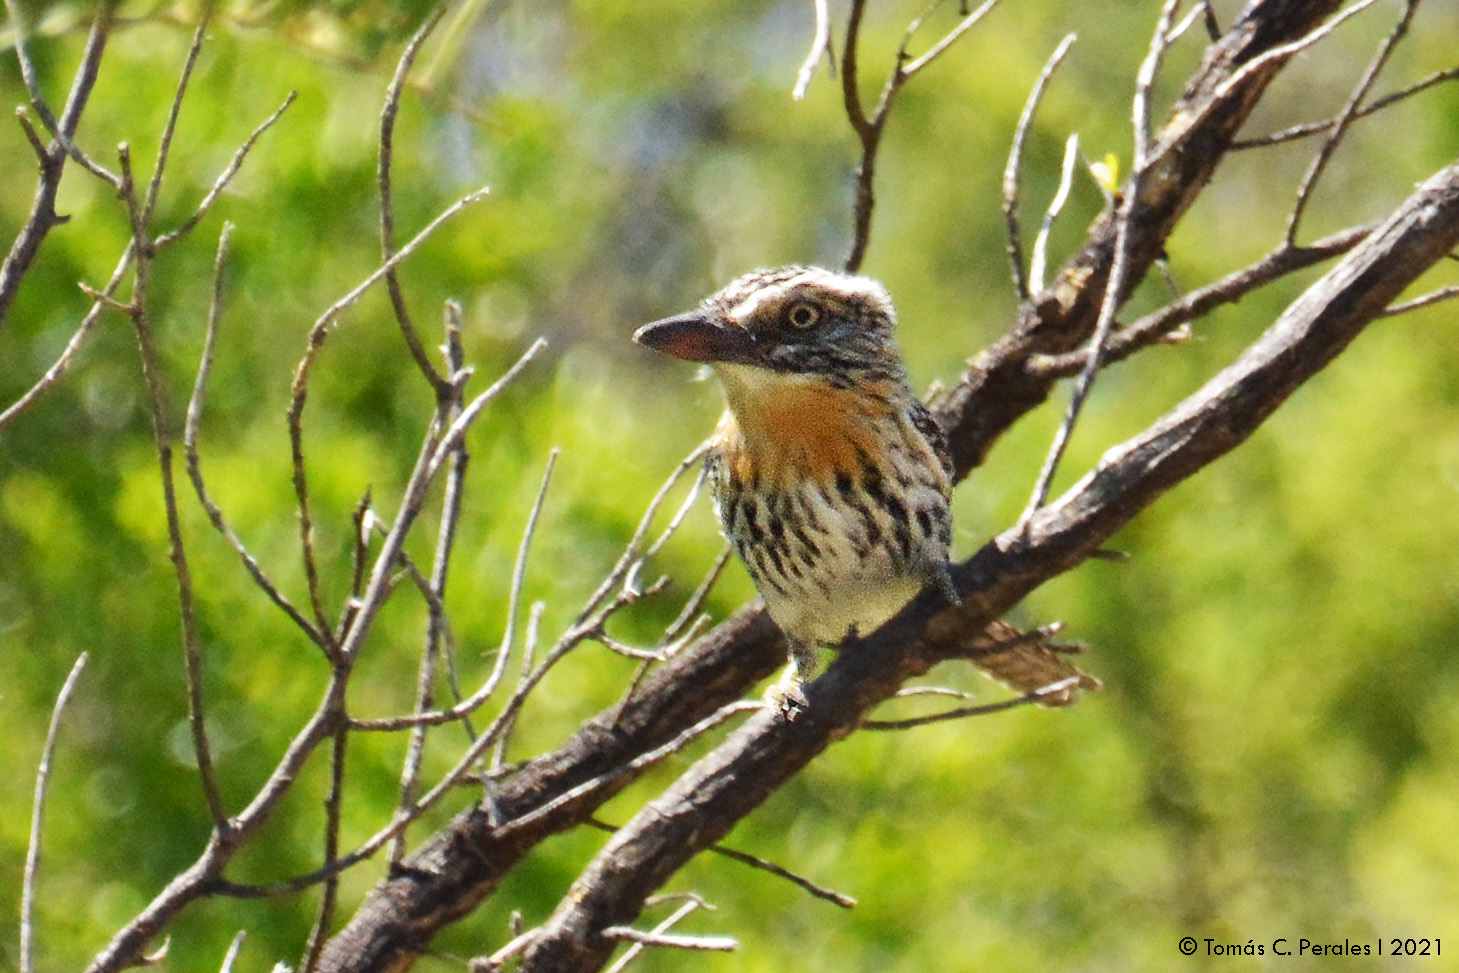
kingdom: Animalia
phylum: Chordata
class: Aves
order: Piciformes
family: Bucconidae
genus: Nystalus
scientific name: Nystalus maculatus
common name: Caatinga puffbird
